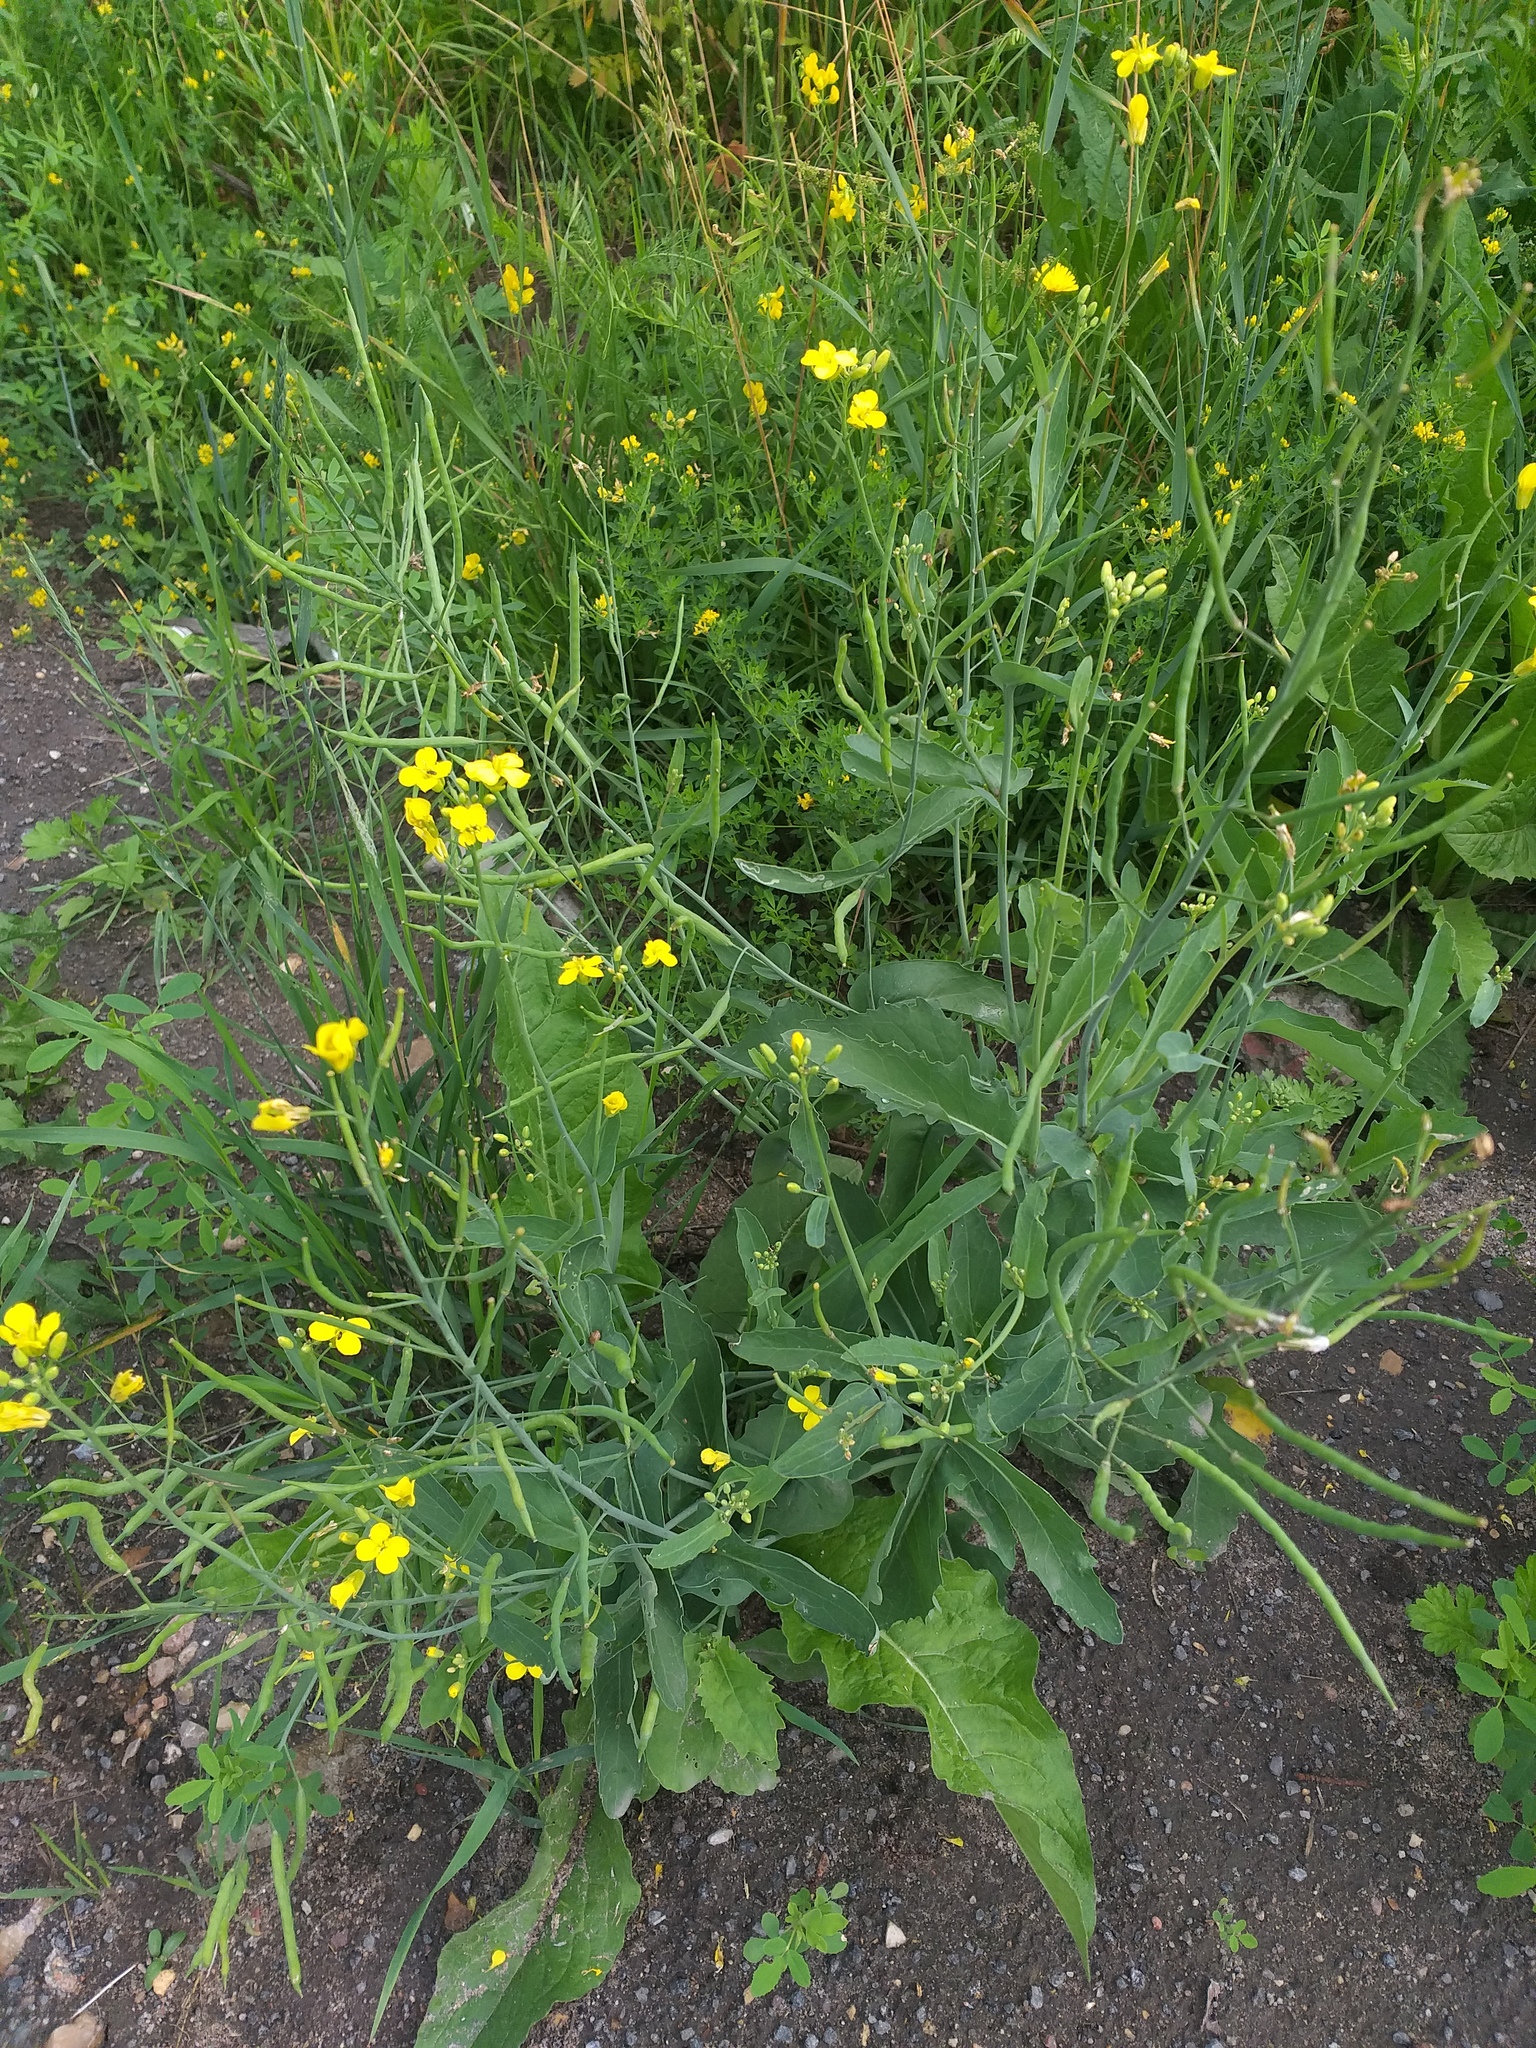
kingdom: Plantae
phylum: Tracheophyta
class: Magnoliopsida
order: Brassicales
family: Brassicaceae
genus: Brassica
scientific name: Brassica rapa
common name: Field mustard
